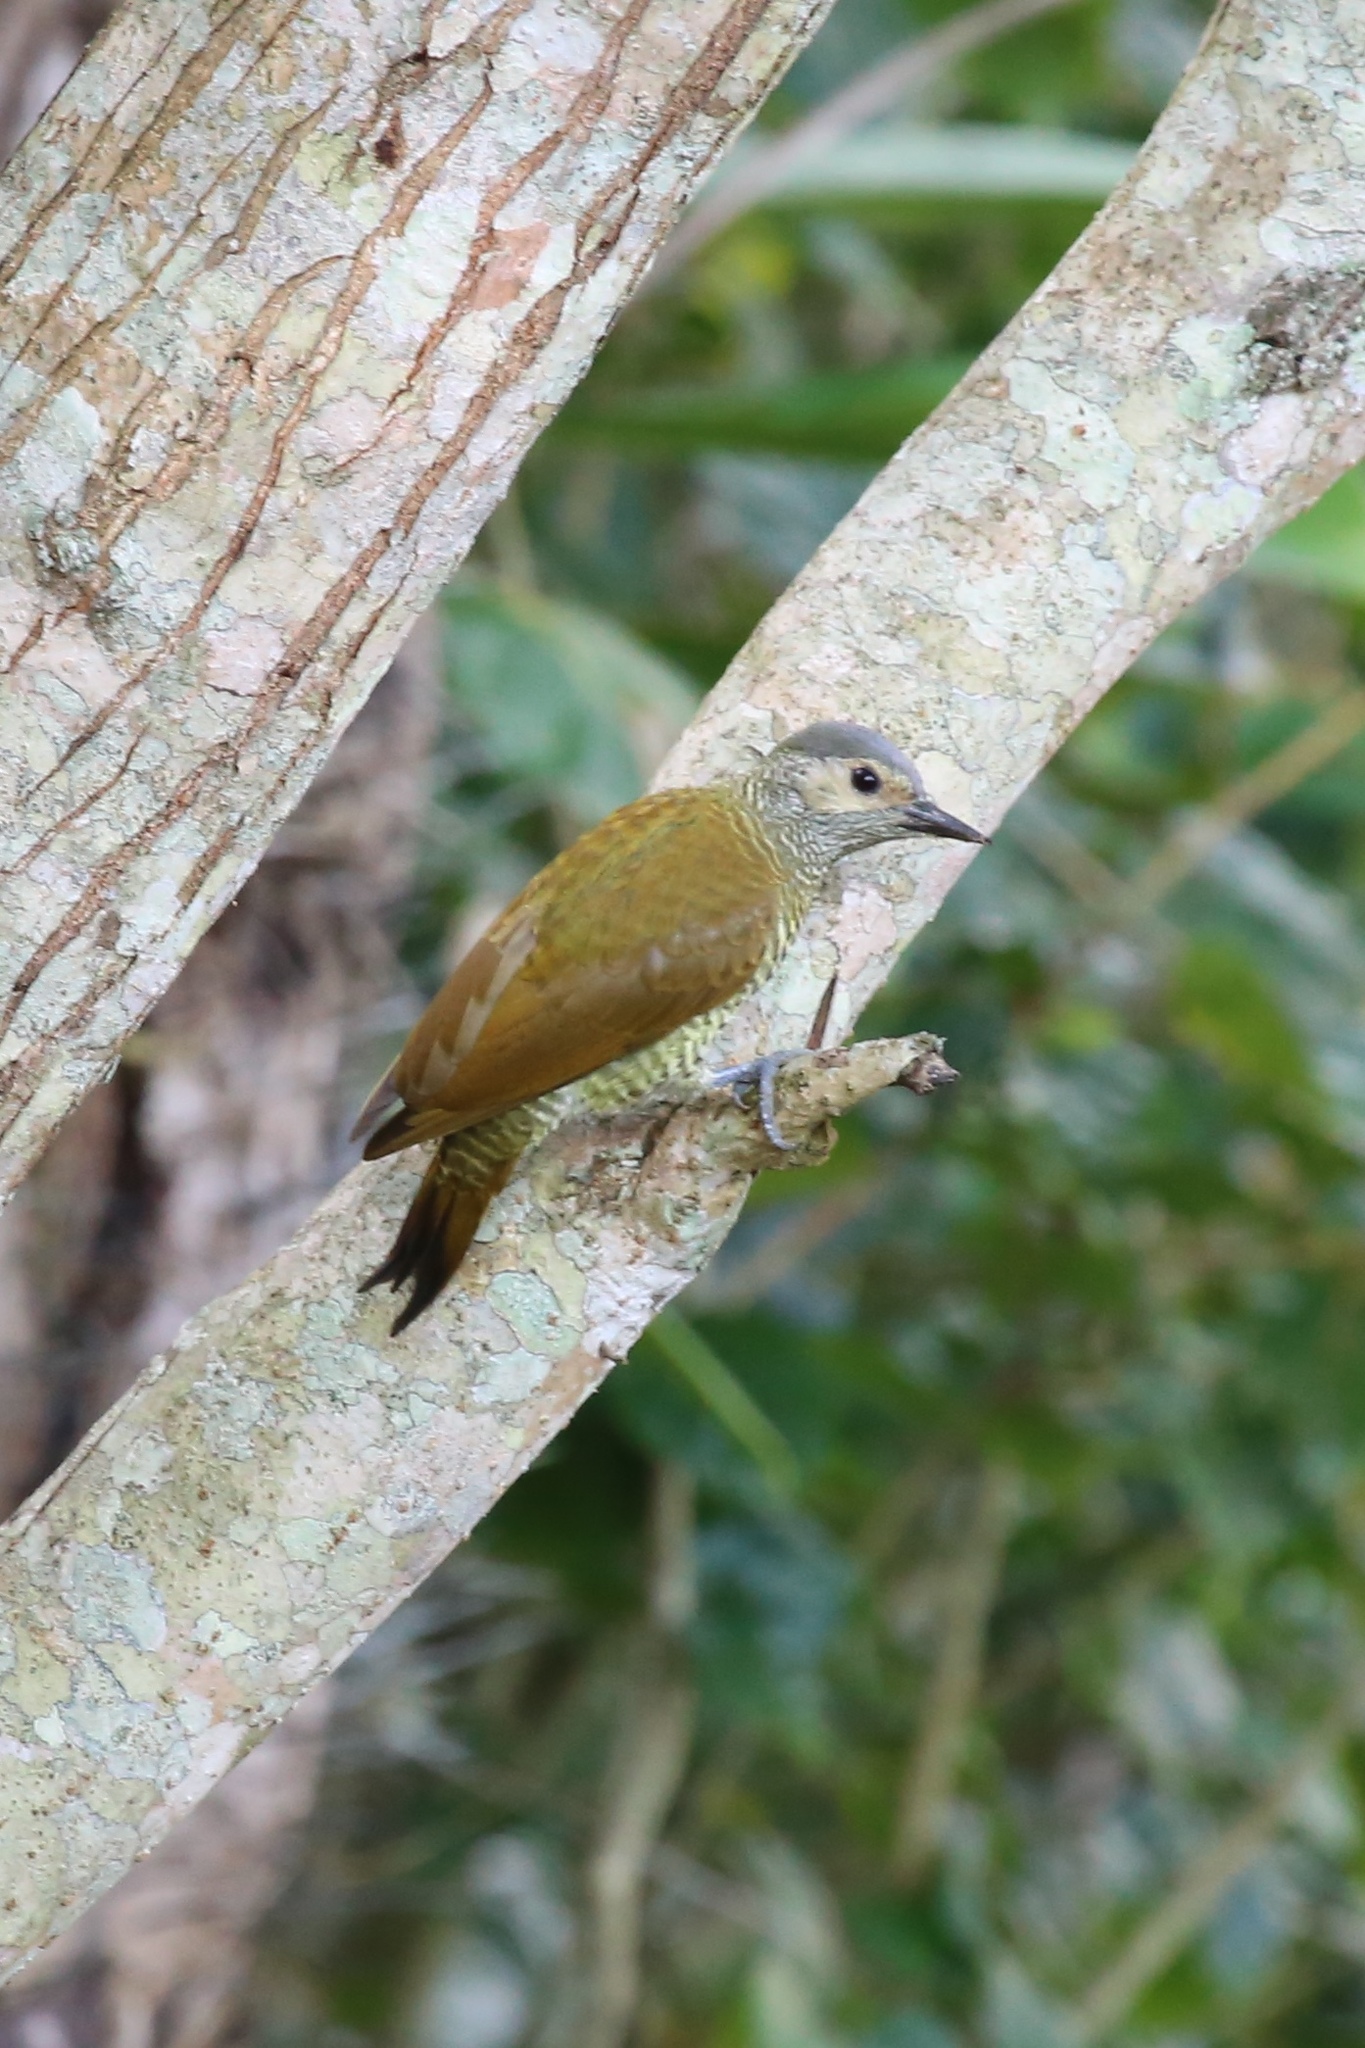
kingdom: Animalia
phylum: Chordata
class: Aves
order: Piciformes
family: Picidae
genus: Colaptes
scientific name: Colaptes auricularis
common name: Grey-crowned woodpecker
